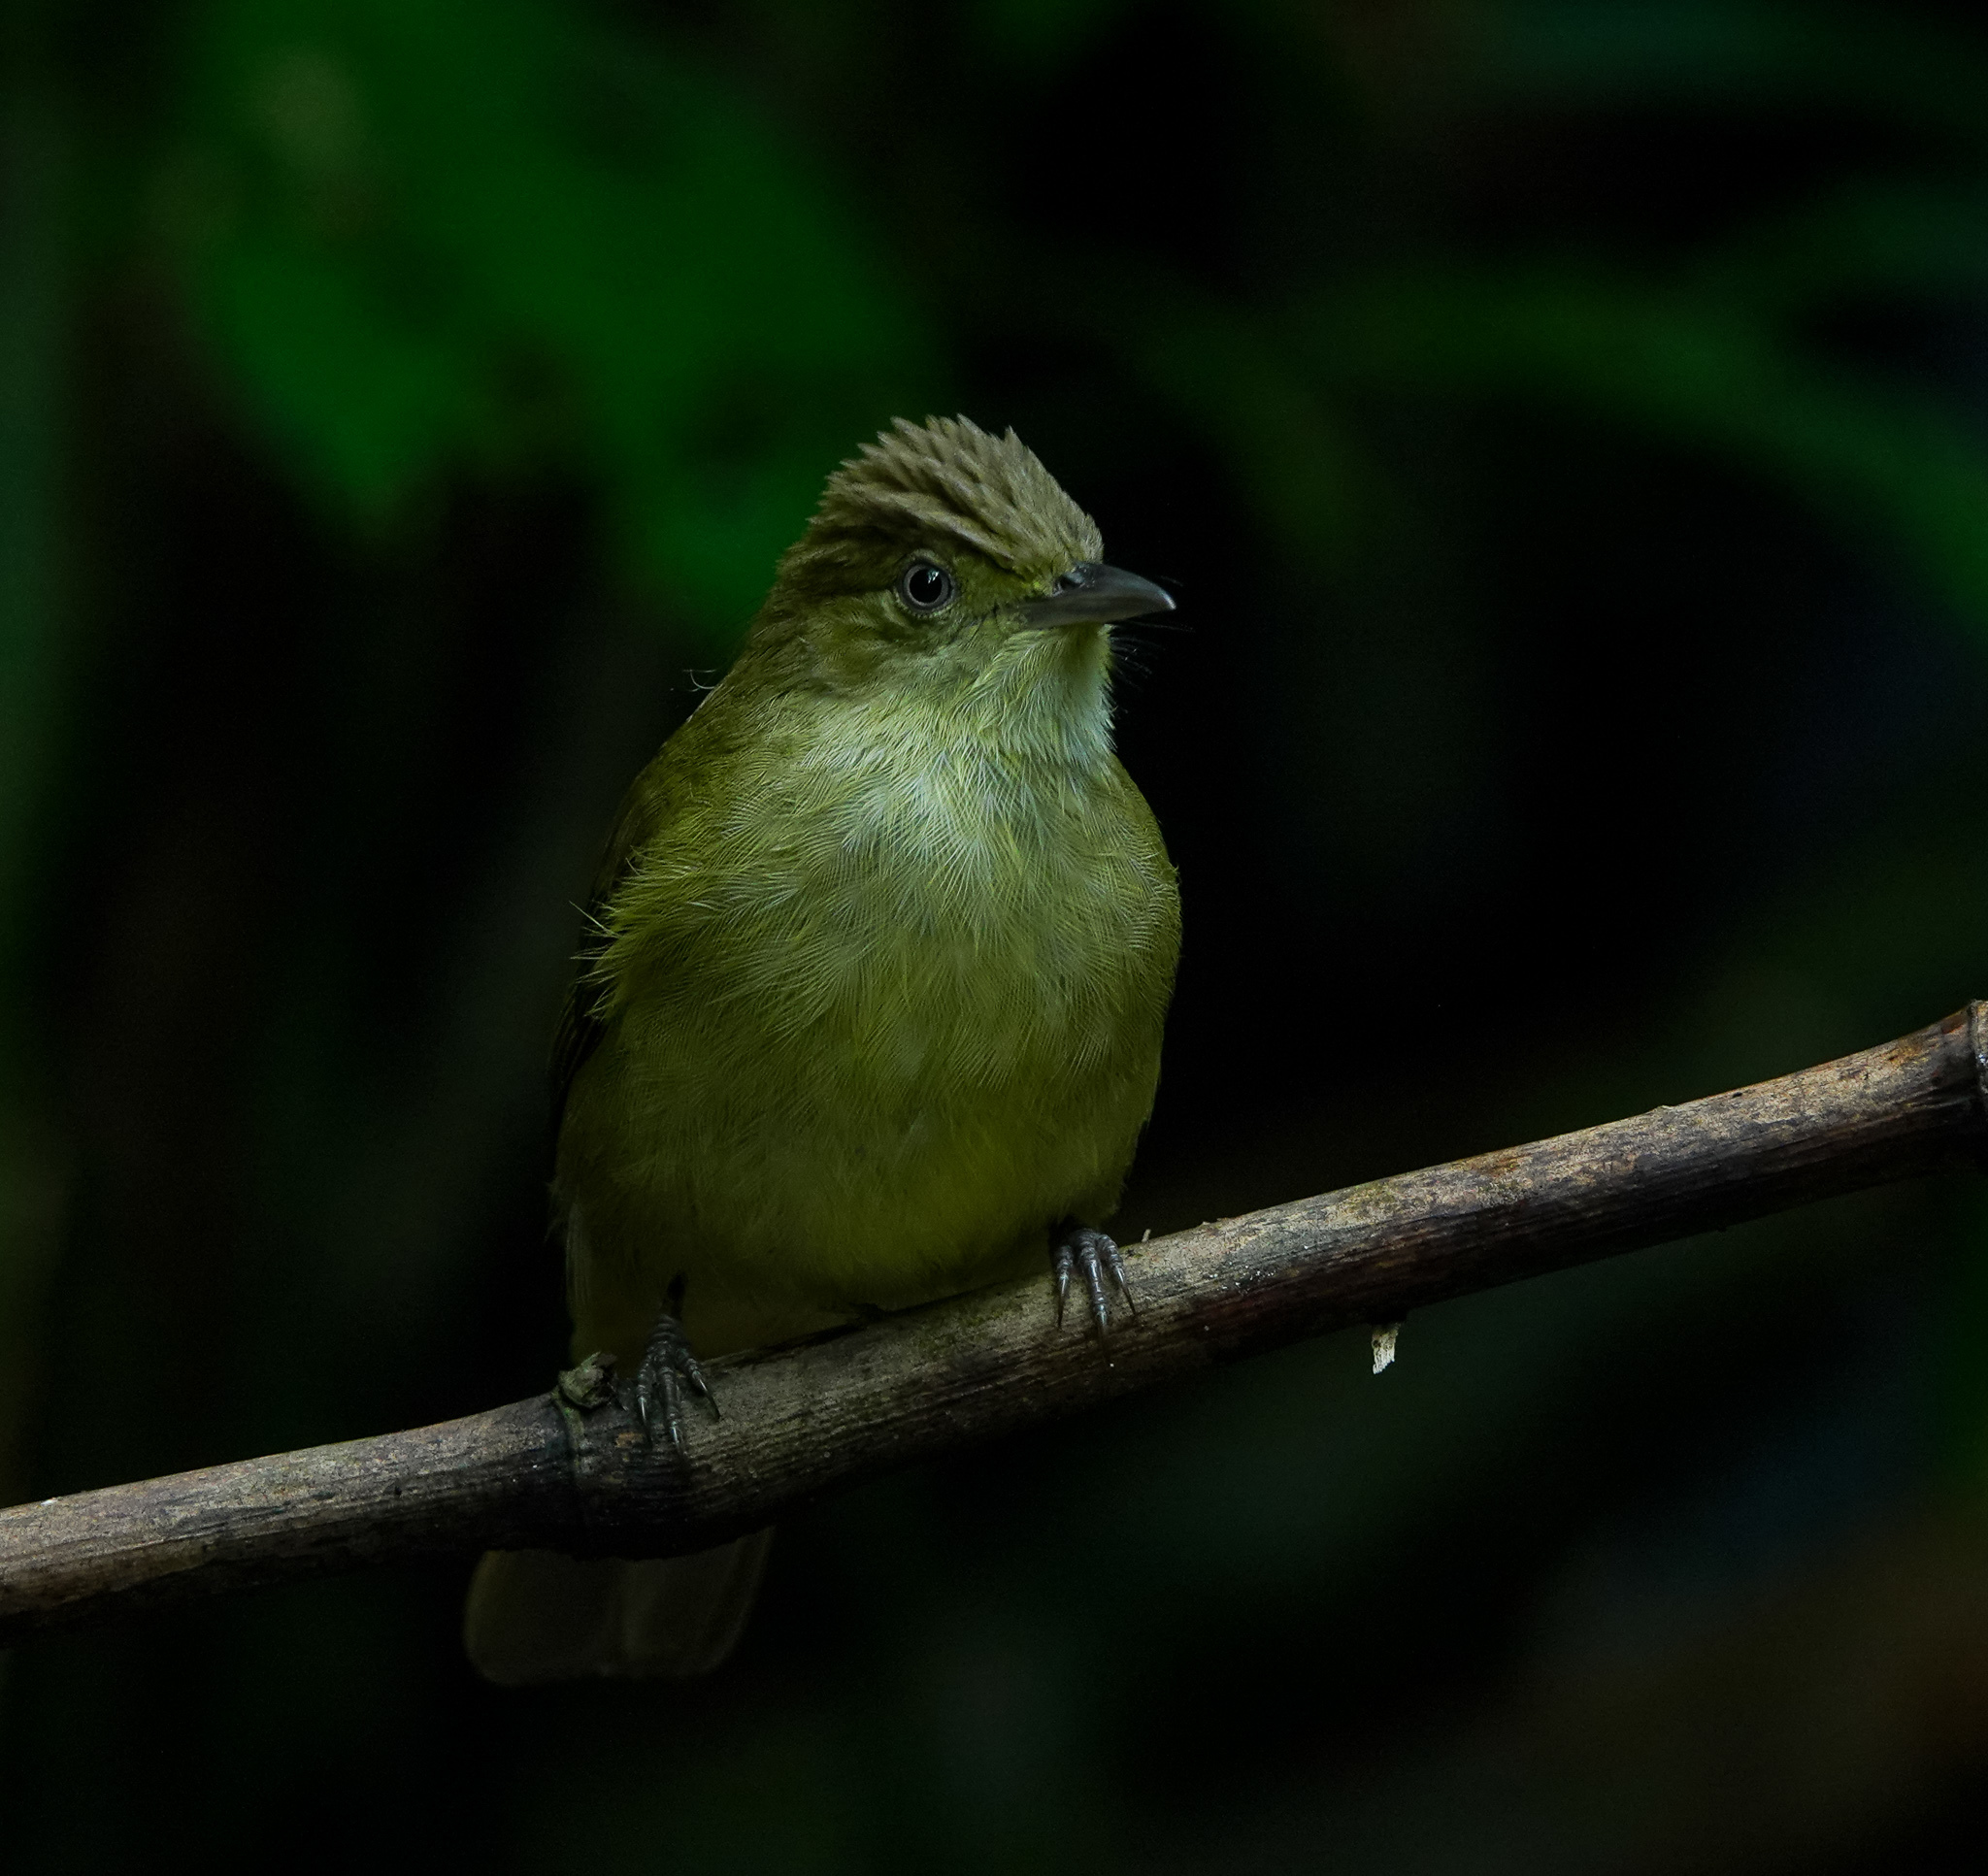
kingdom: Animalia
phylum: Chordata
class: Aves
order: Passeriformes
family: Pycnonotidae
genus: Iole
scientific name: Iole virescens
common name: Olive bulbul
